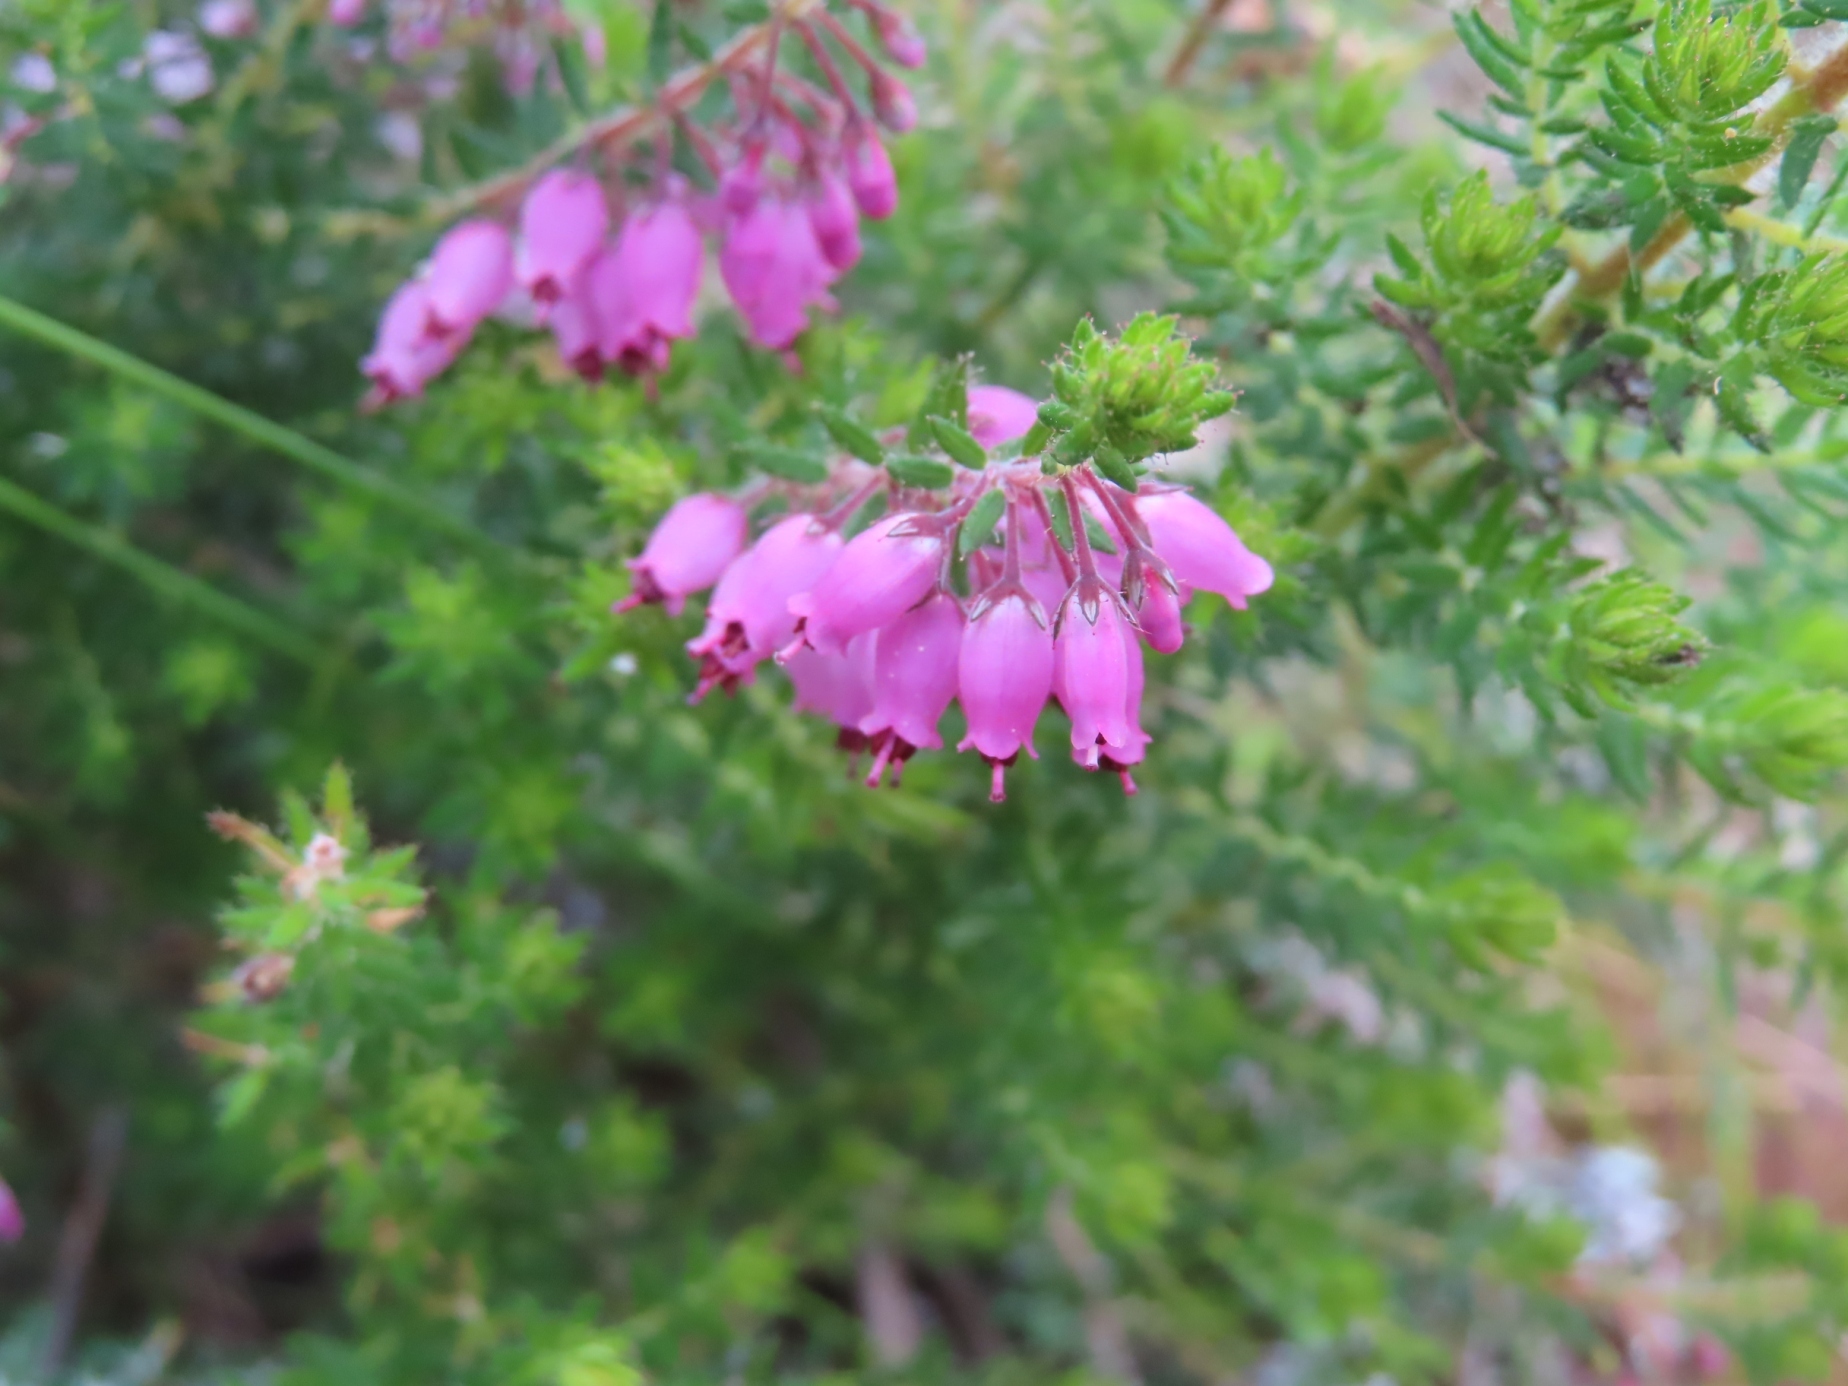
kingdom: Plantae
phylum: Tracheophyta
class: Magnoliopsida
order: Ericales
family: Ericaceae
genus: Erica
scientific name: Erica racemosa
